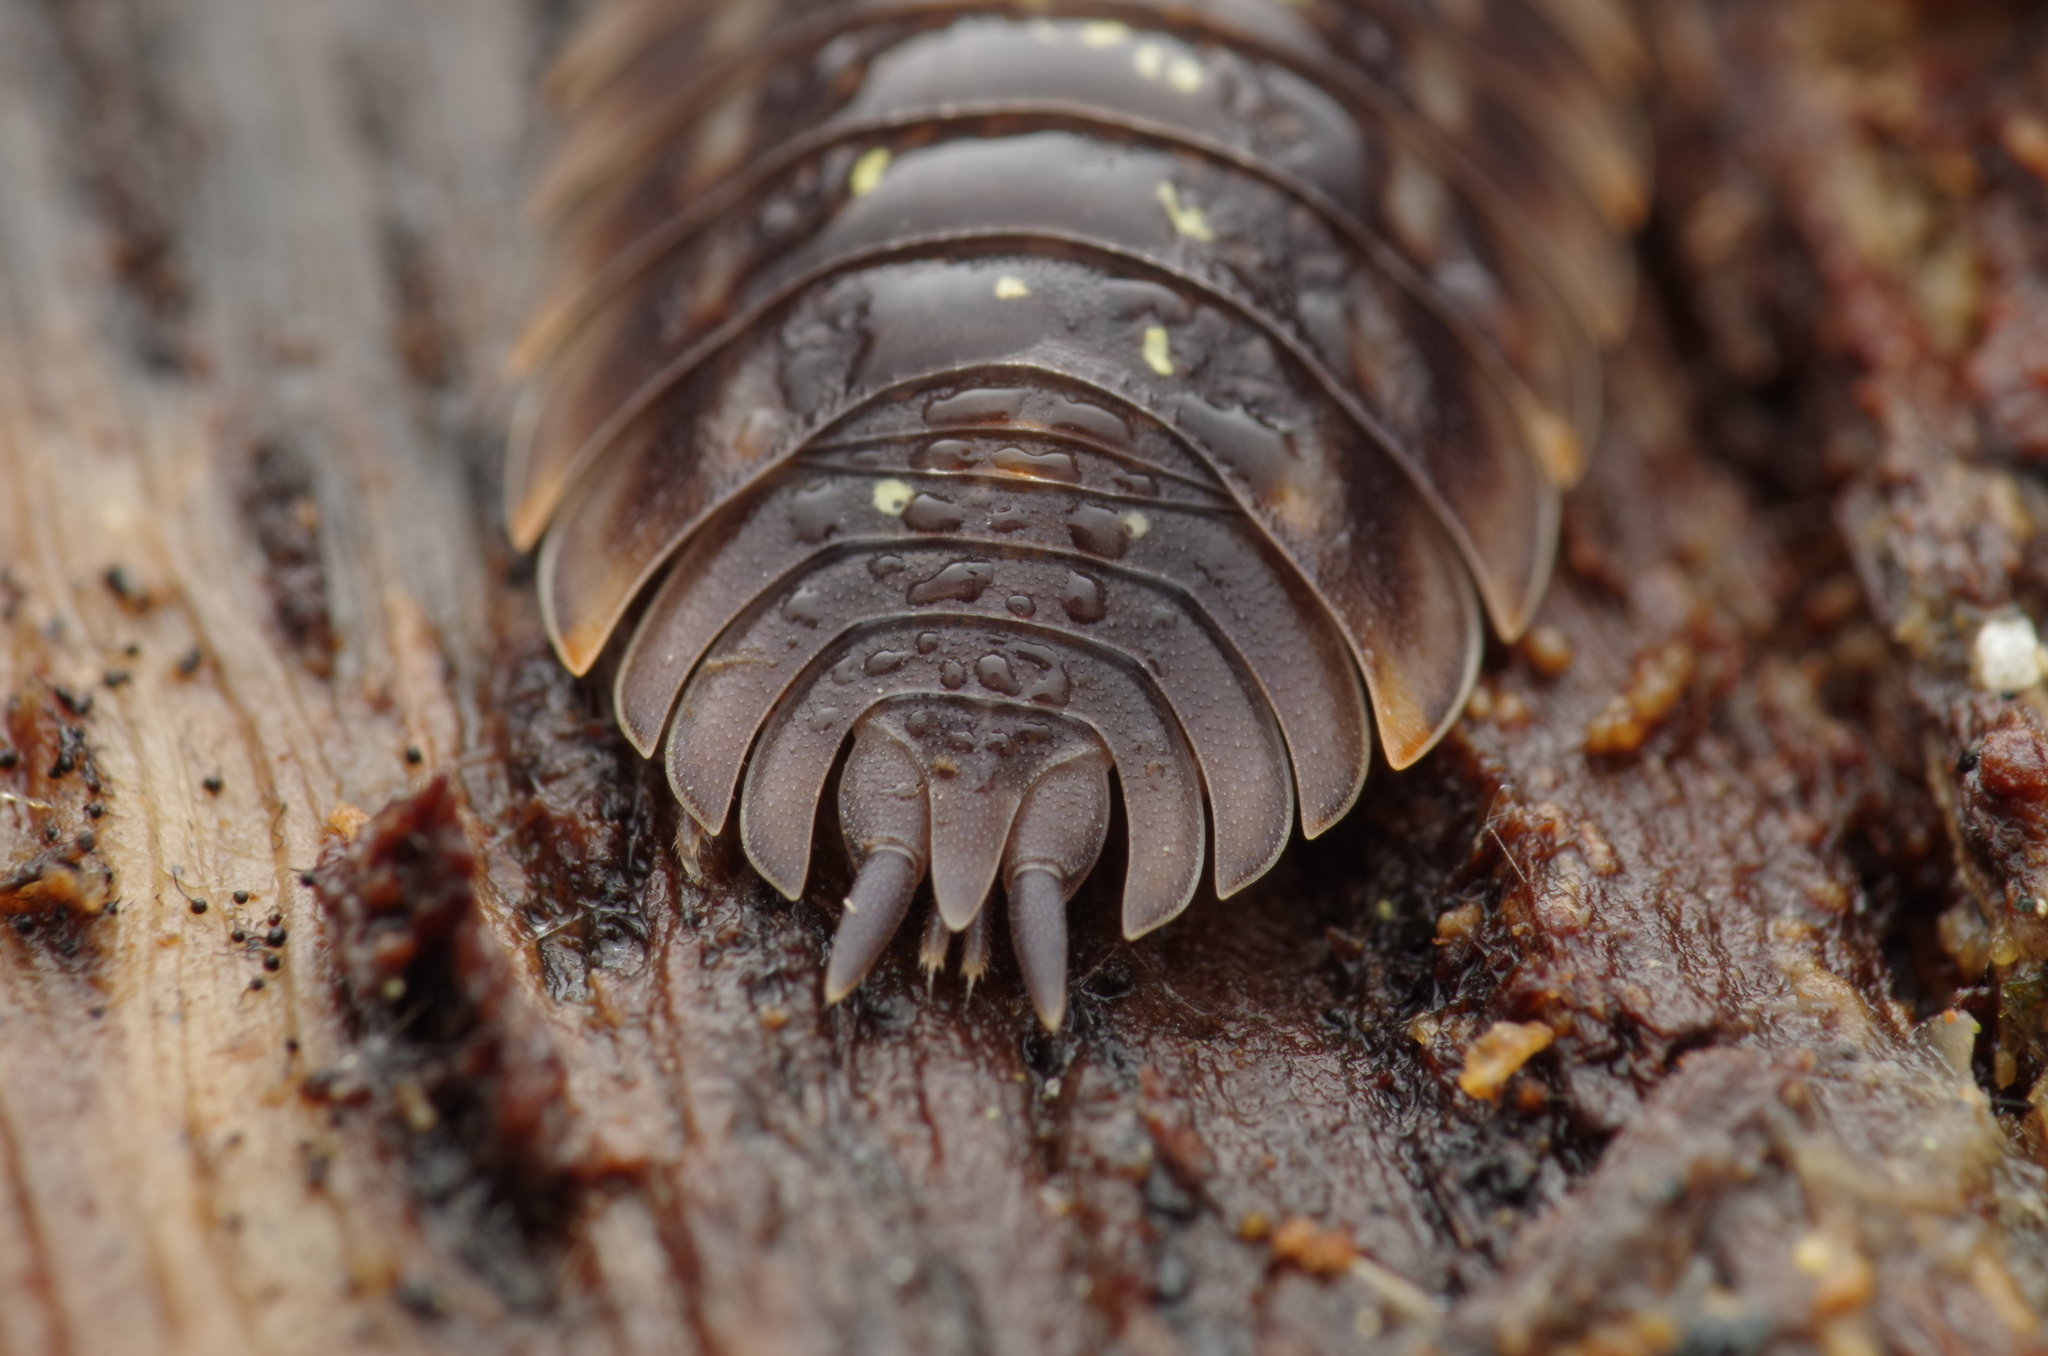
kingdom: Animalia
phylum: Arthropoda
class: Malacostraca
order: Isopoda
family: Oniscidae
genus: Oniscus
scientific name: Oniscus asellus
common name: Common shiny woodlouse
